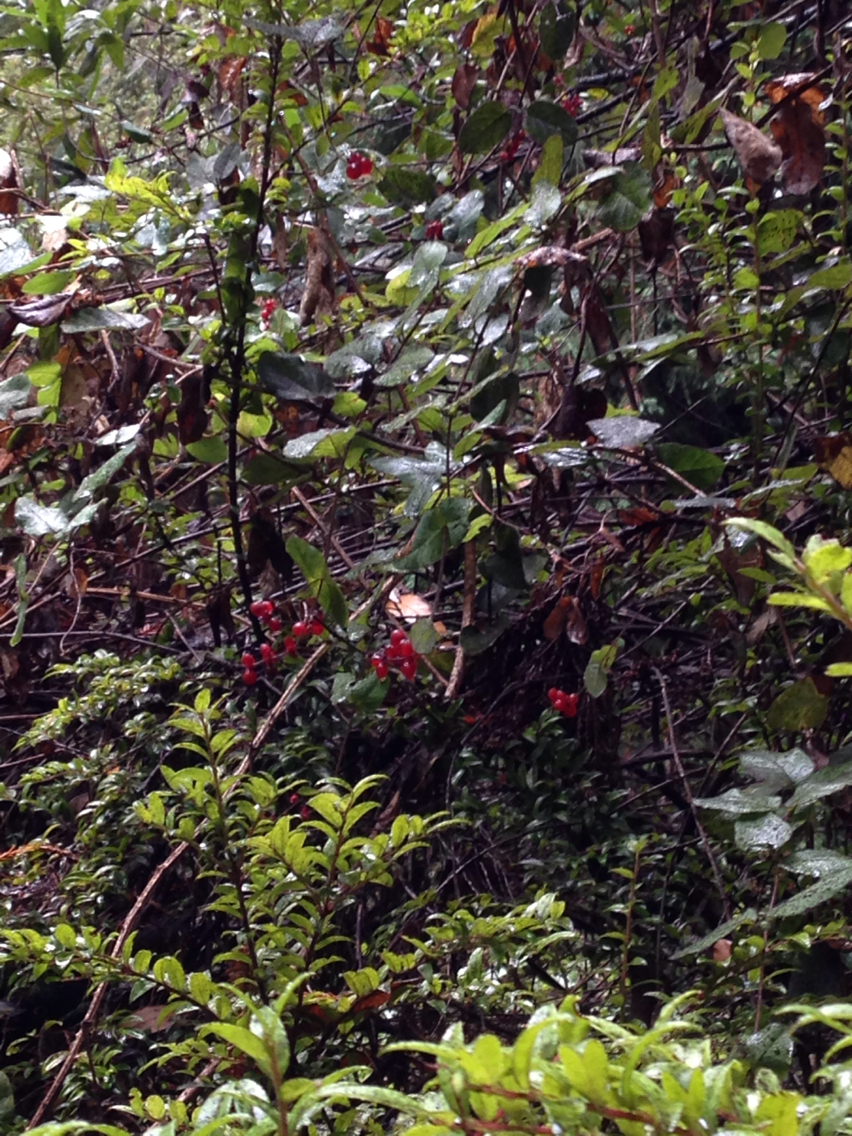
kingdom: Plantae
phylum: Tracheophyta
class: Magnoliopsida
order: Dipsacales
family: Caprifoliaceae
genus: Lonicera
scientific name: Lonicera hispidula
